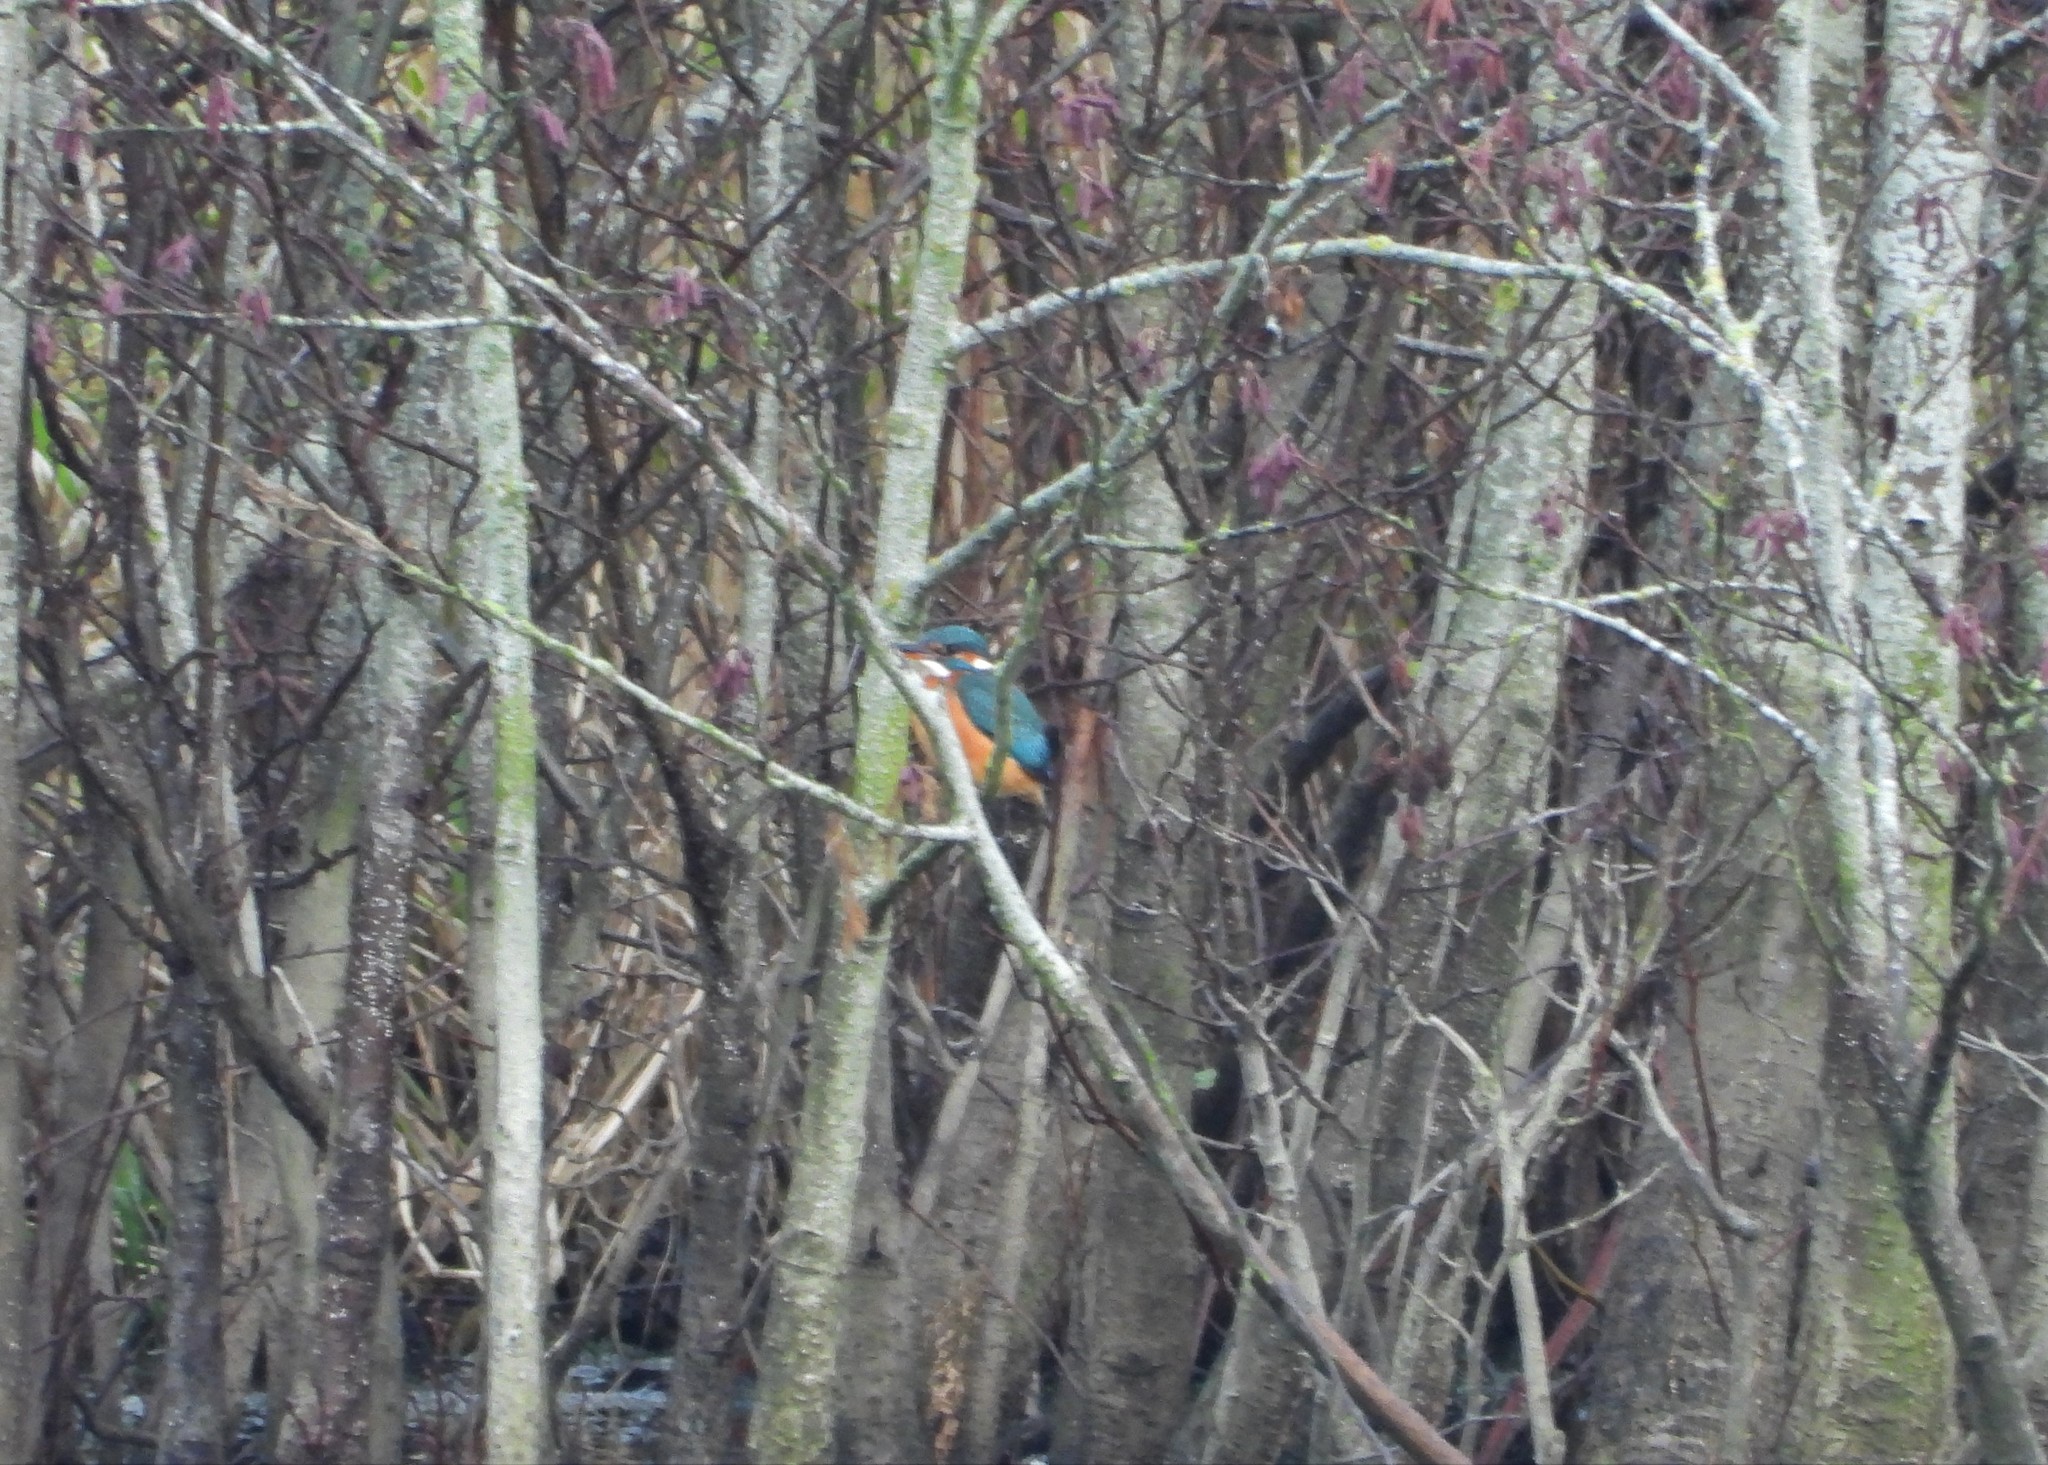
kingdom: Animalia
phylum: Chordata
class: Aves
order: Coraciiformes
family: Alcedinidae
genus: Alcedo
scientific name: Alcedo atthis
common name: Common kingfisher
